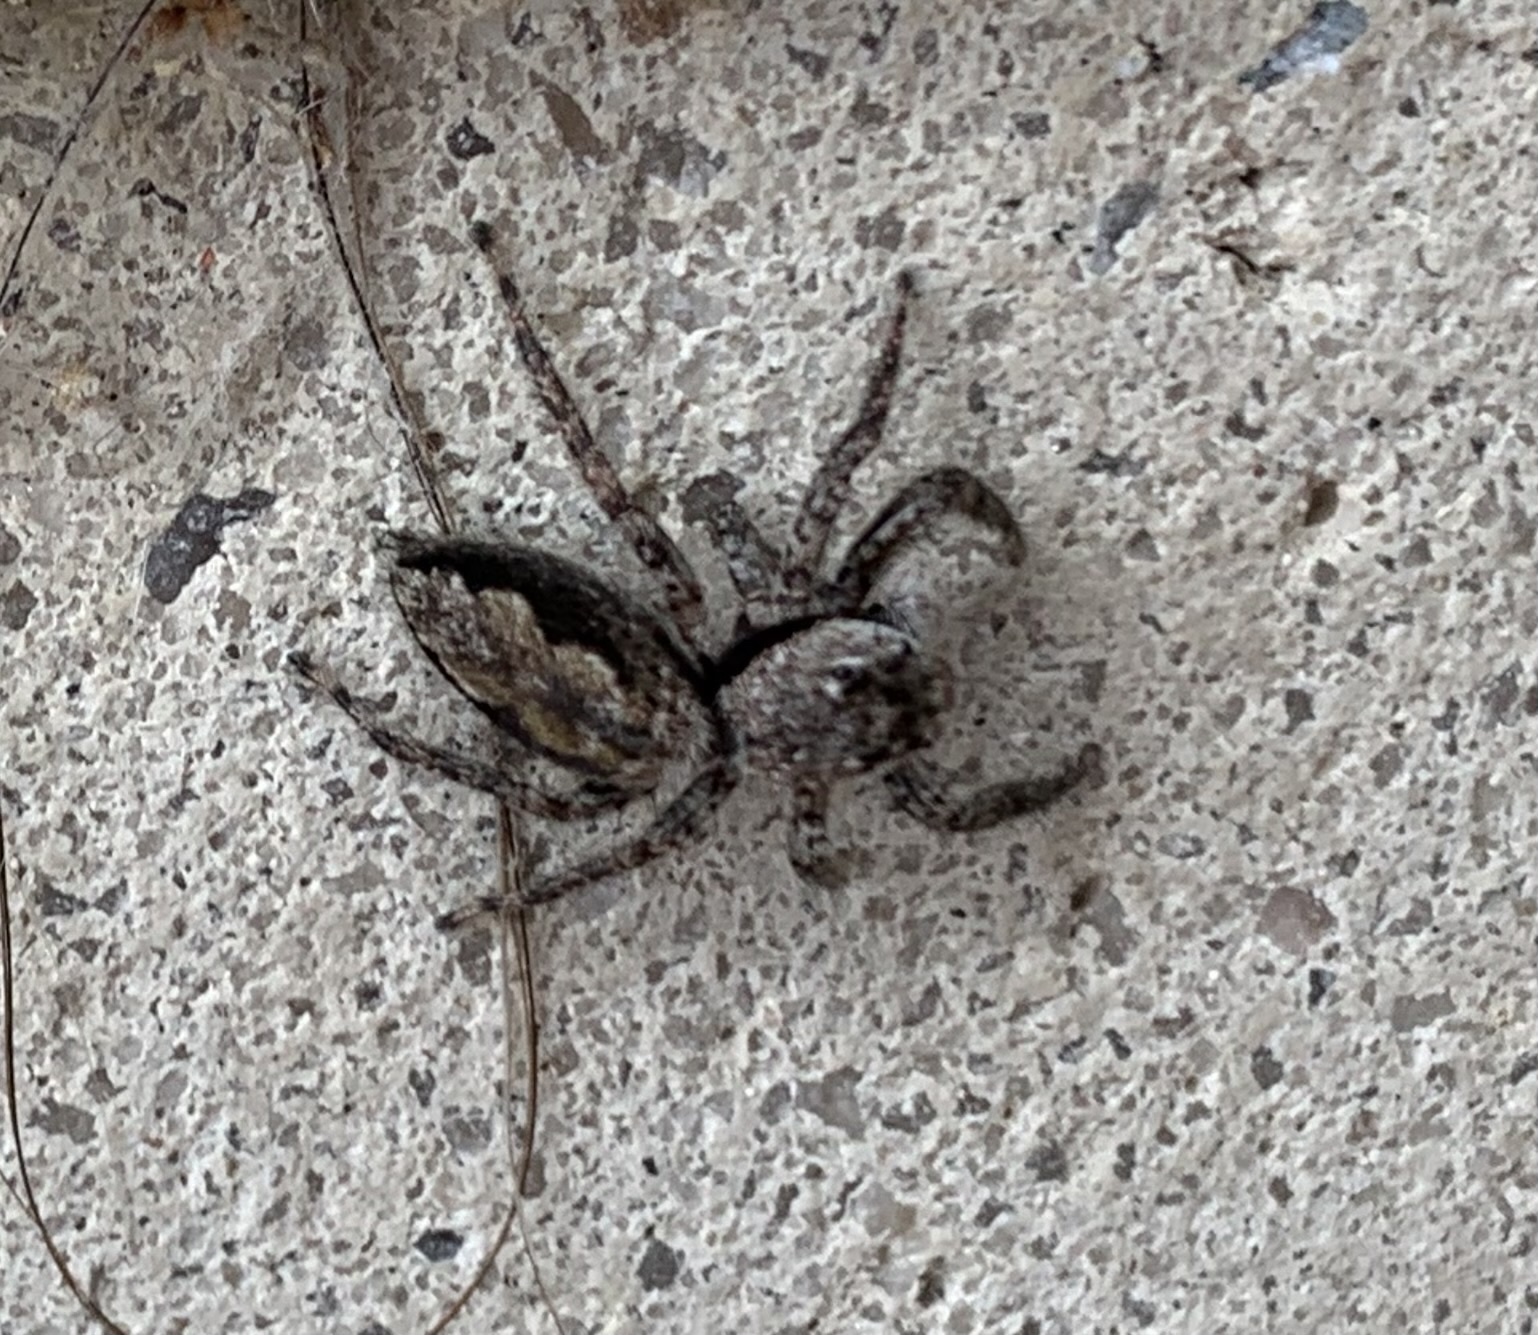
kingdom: Animalia
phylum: Arthropoda
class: Arachnida
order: Araneae
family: Salticidae
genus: Platycryptus
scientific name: Platycryptus undatus
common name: Tan jumping spider
